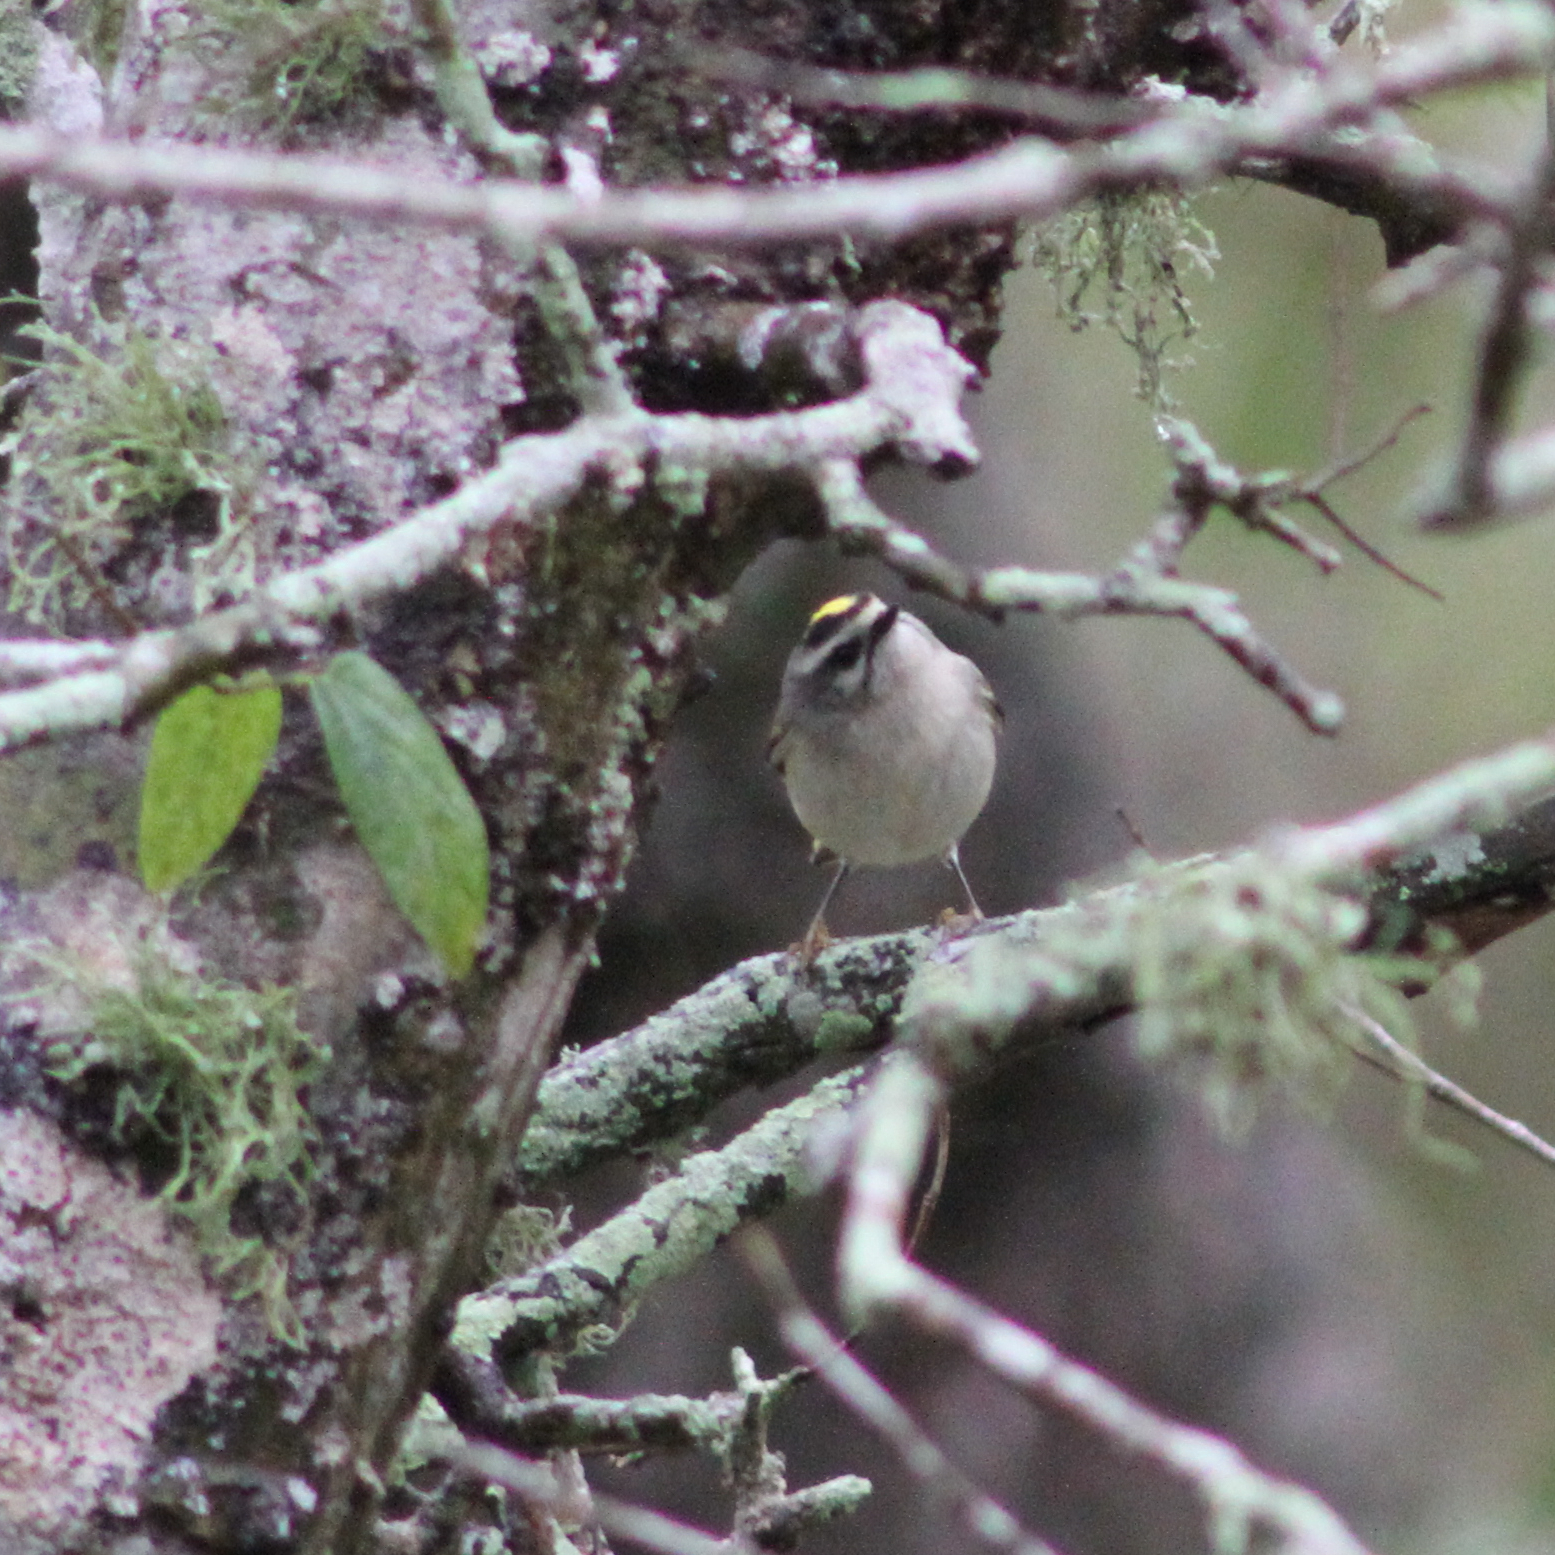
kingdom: Animalia
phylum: Chordata
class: Aves
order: Passeriformes
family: Regulidae
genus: Regulus
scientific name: Regulus satrapa
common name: Golden-crowned kinglet
